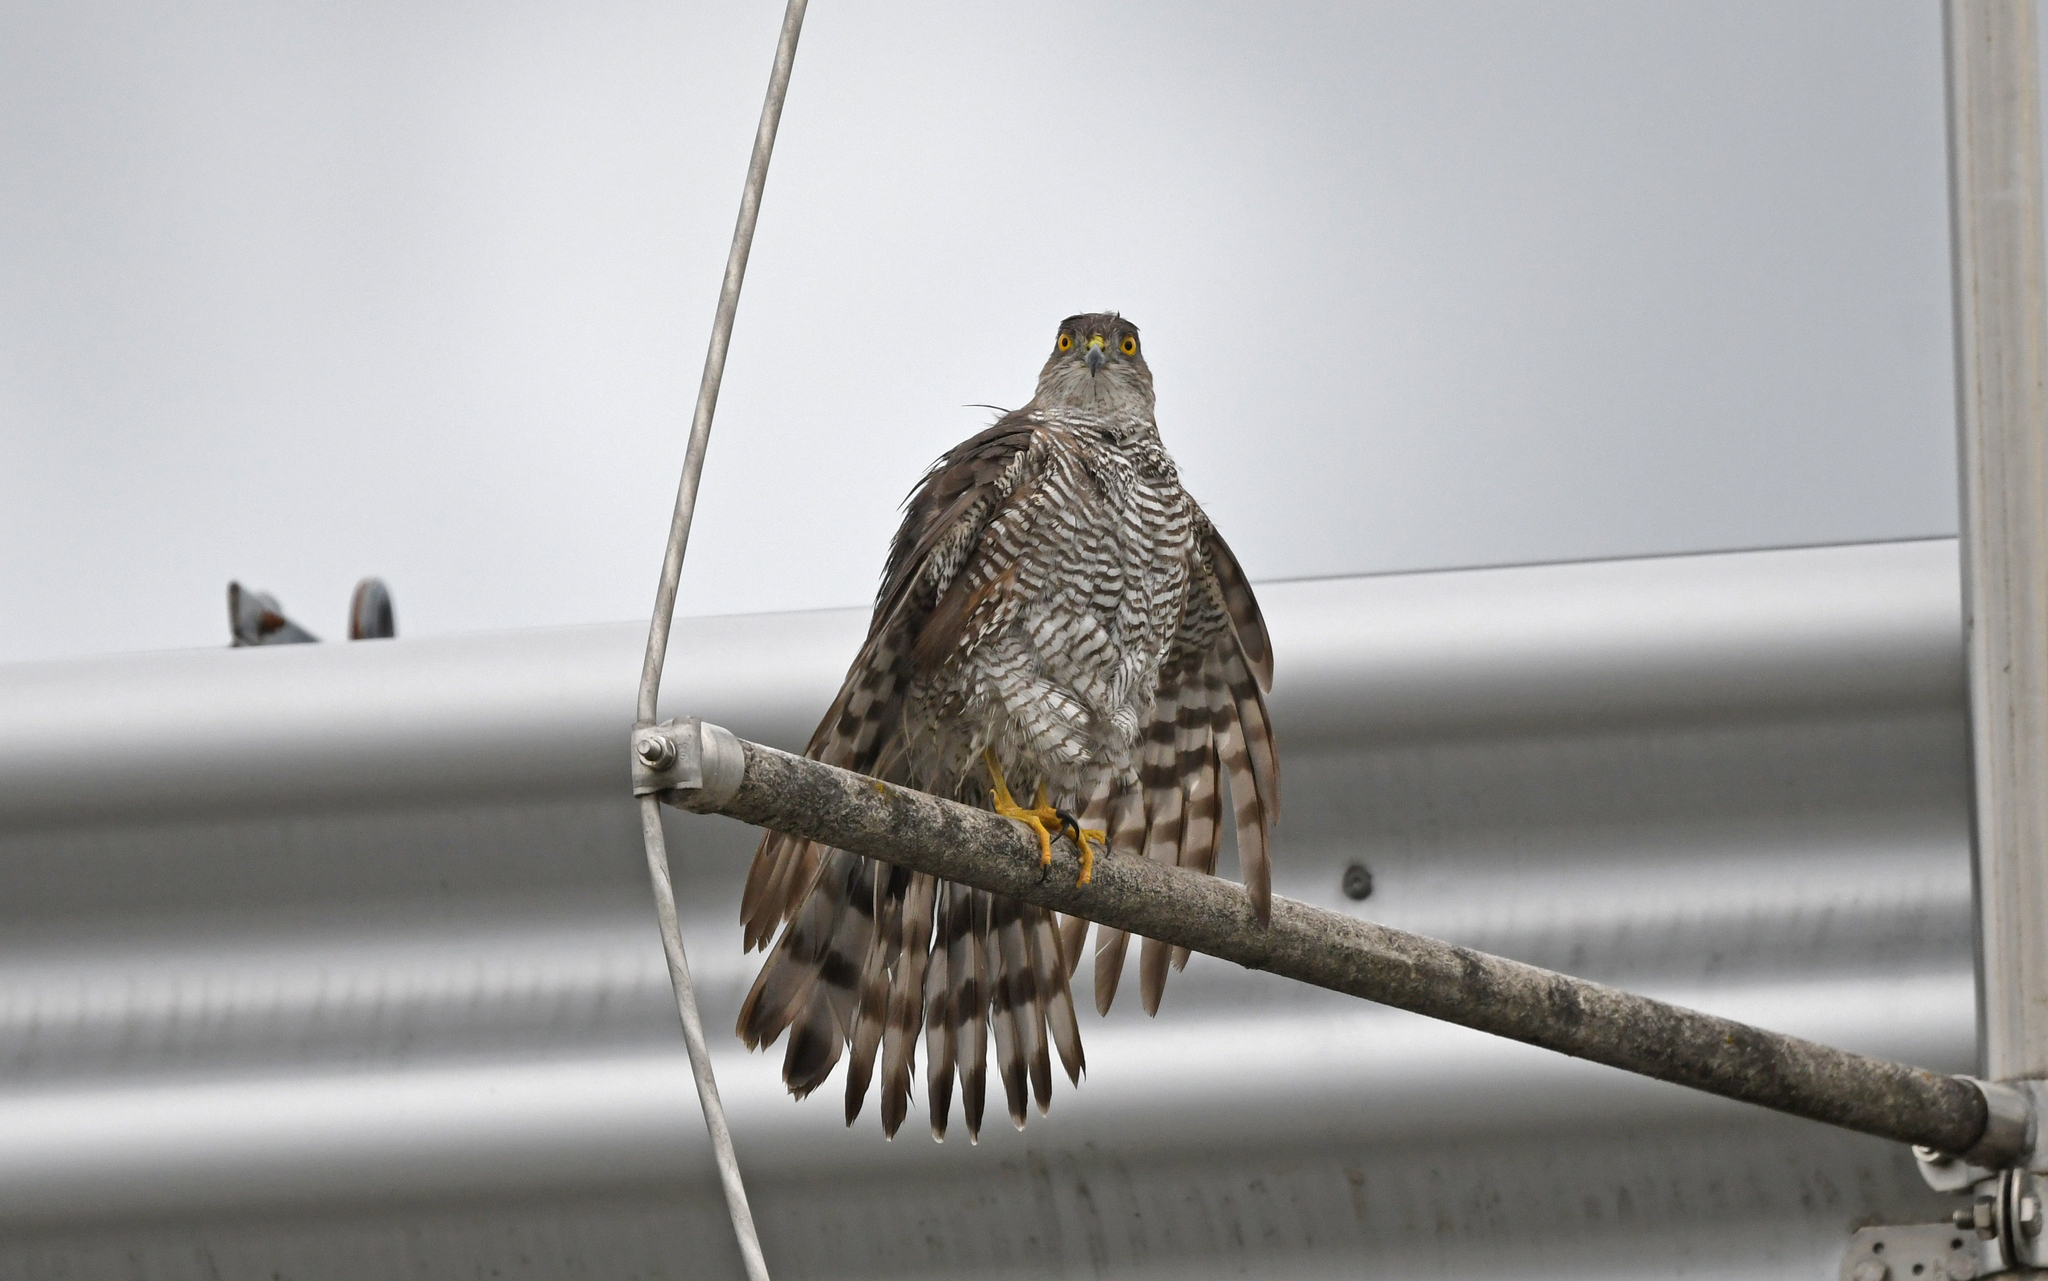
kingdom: Animalia
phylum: Chordata
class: Aves
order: Accipitriformes
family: Accipitridae
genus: Accipiter
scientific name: Accipiter nisus
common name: Eurasian sparrowhawk
